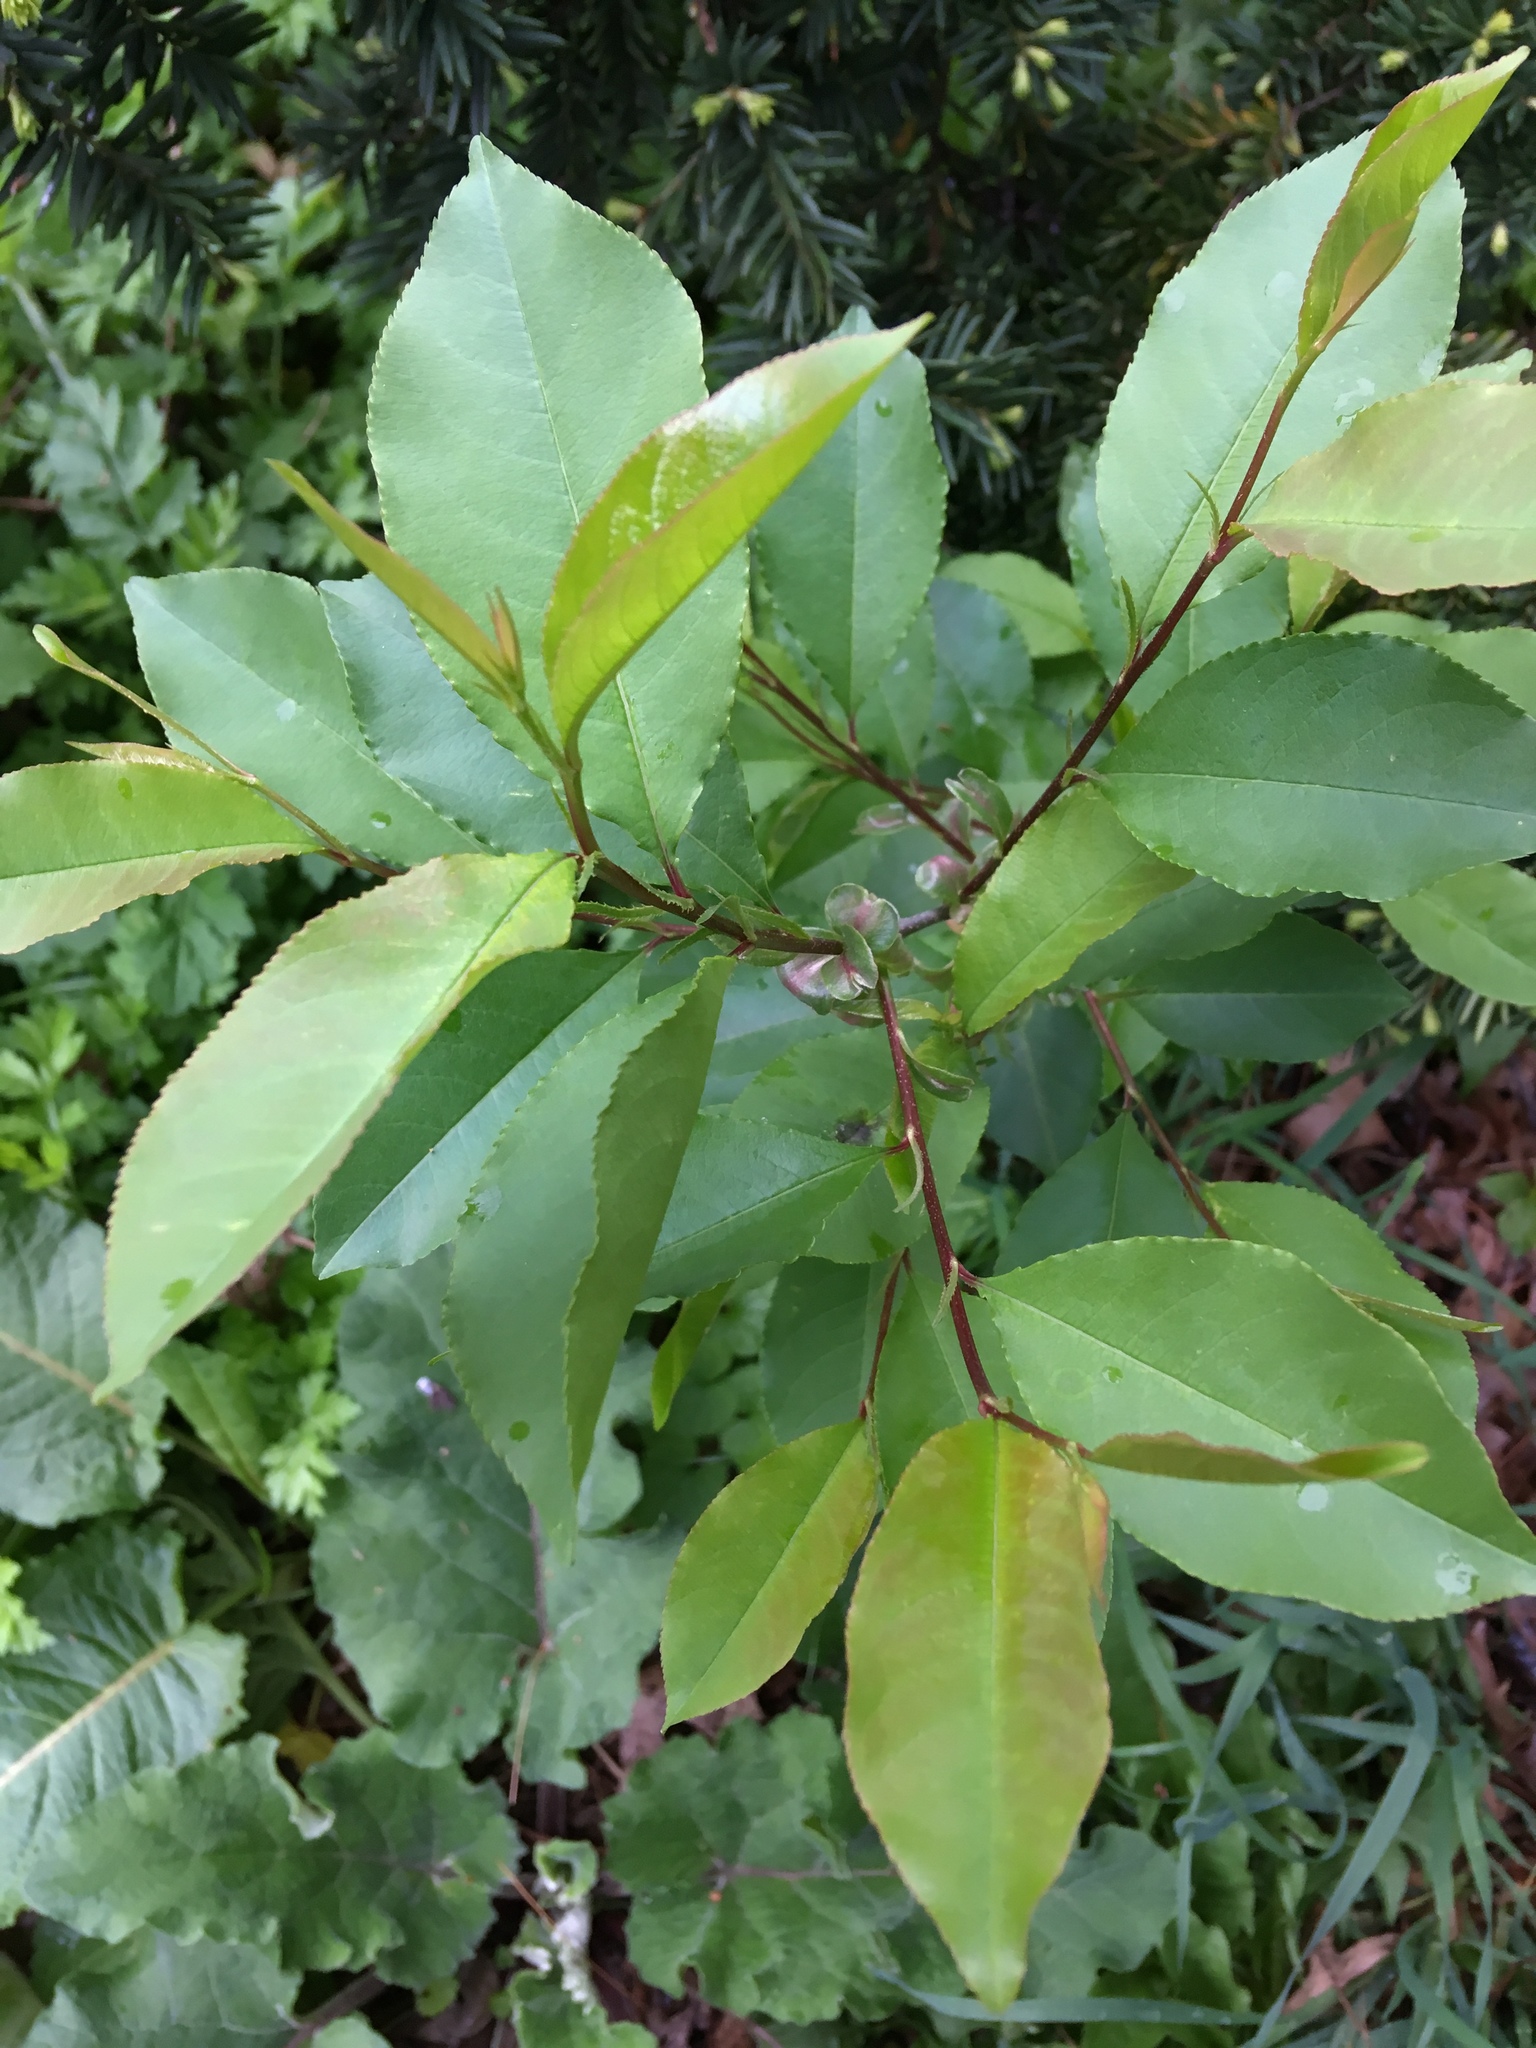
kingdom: Plantae
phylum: Tracheophyta
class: Magnoliopsida
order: Rosales
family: Rosaceae
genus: Prunus
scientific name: Prunus serotina
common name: Black cherry
